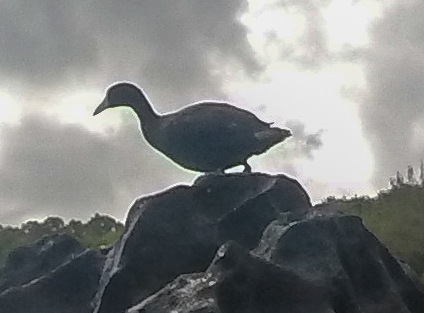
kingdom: Animalia
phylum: Chordata
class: Aves
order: Gruiformes
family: Rallidae
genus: Fulica
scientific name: Fulica alai
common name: Hawaiian coot
